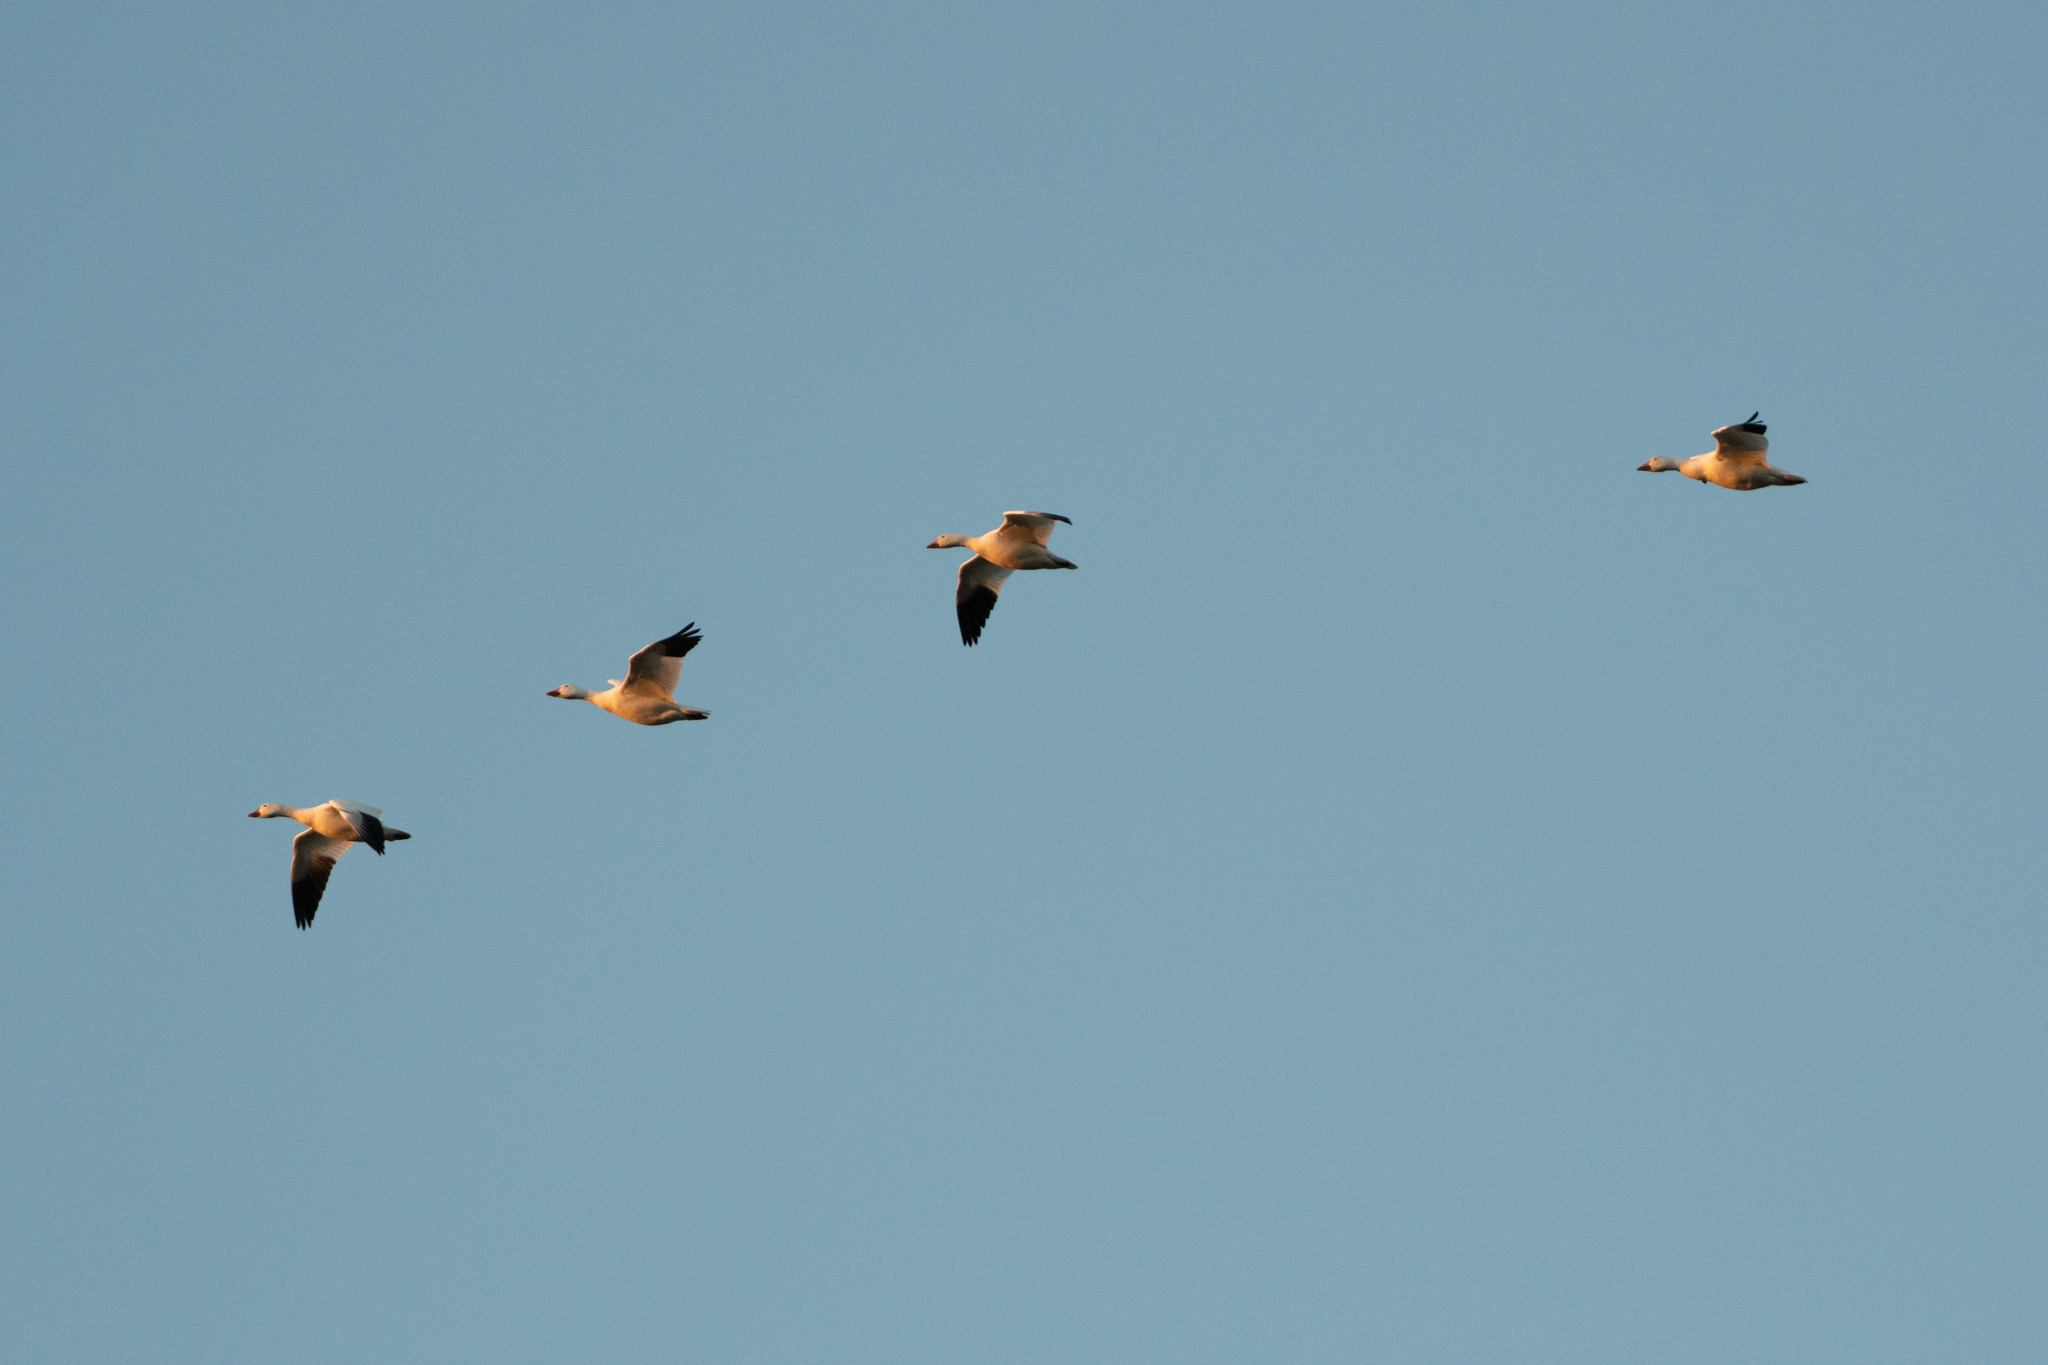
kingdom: Animalia
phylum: Chordata
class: Aves
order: Anseriformes
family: Anatidae
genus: Anser
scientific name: Anser caerulescens
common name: Snow goose
